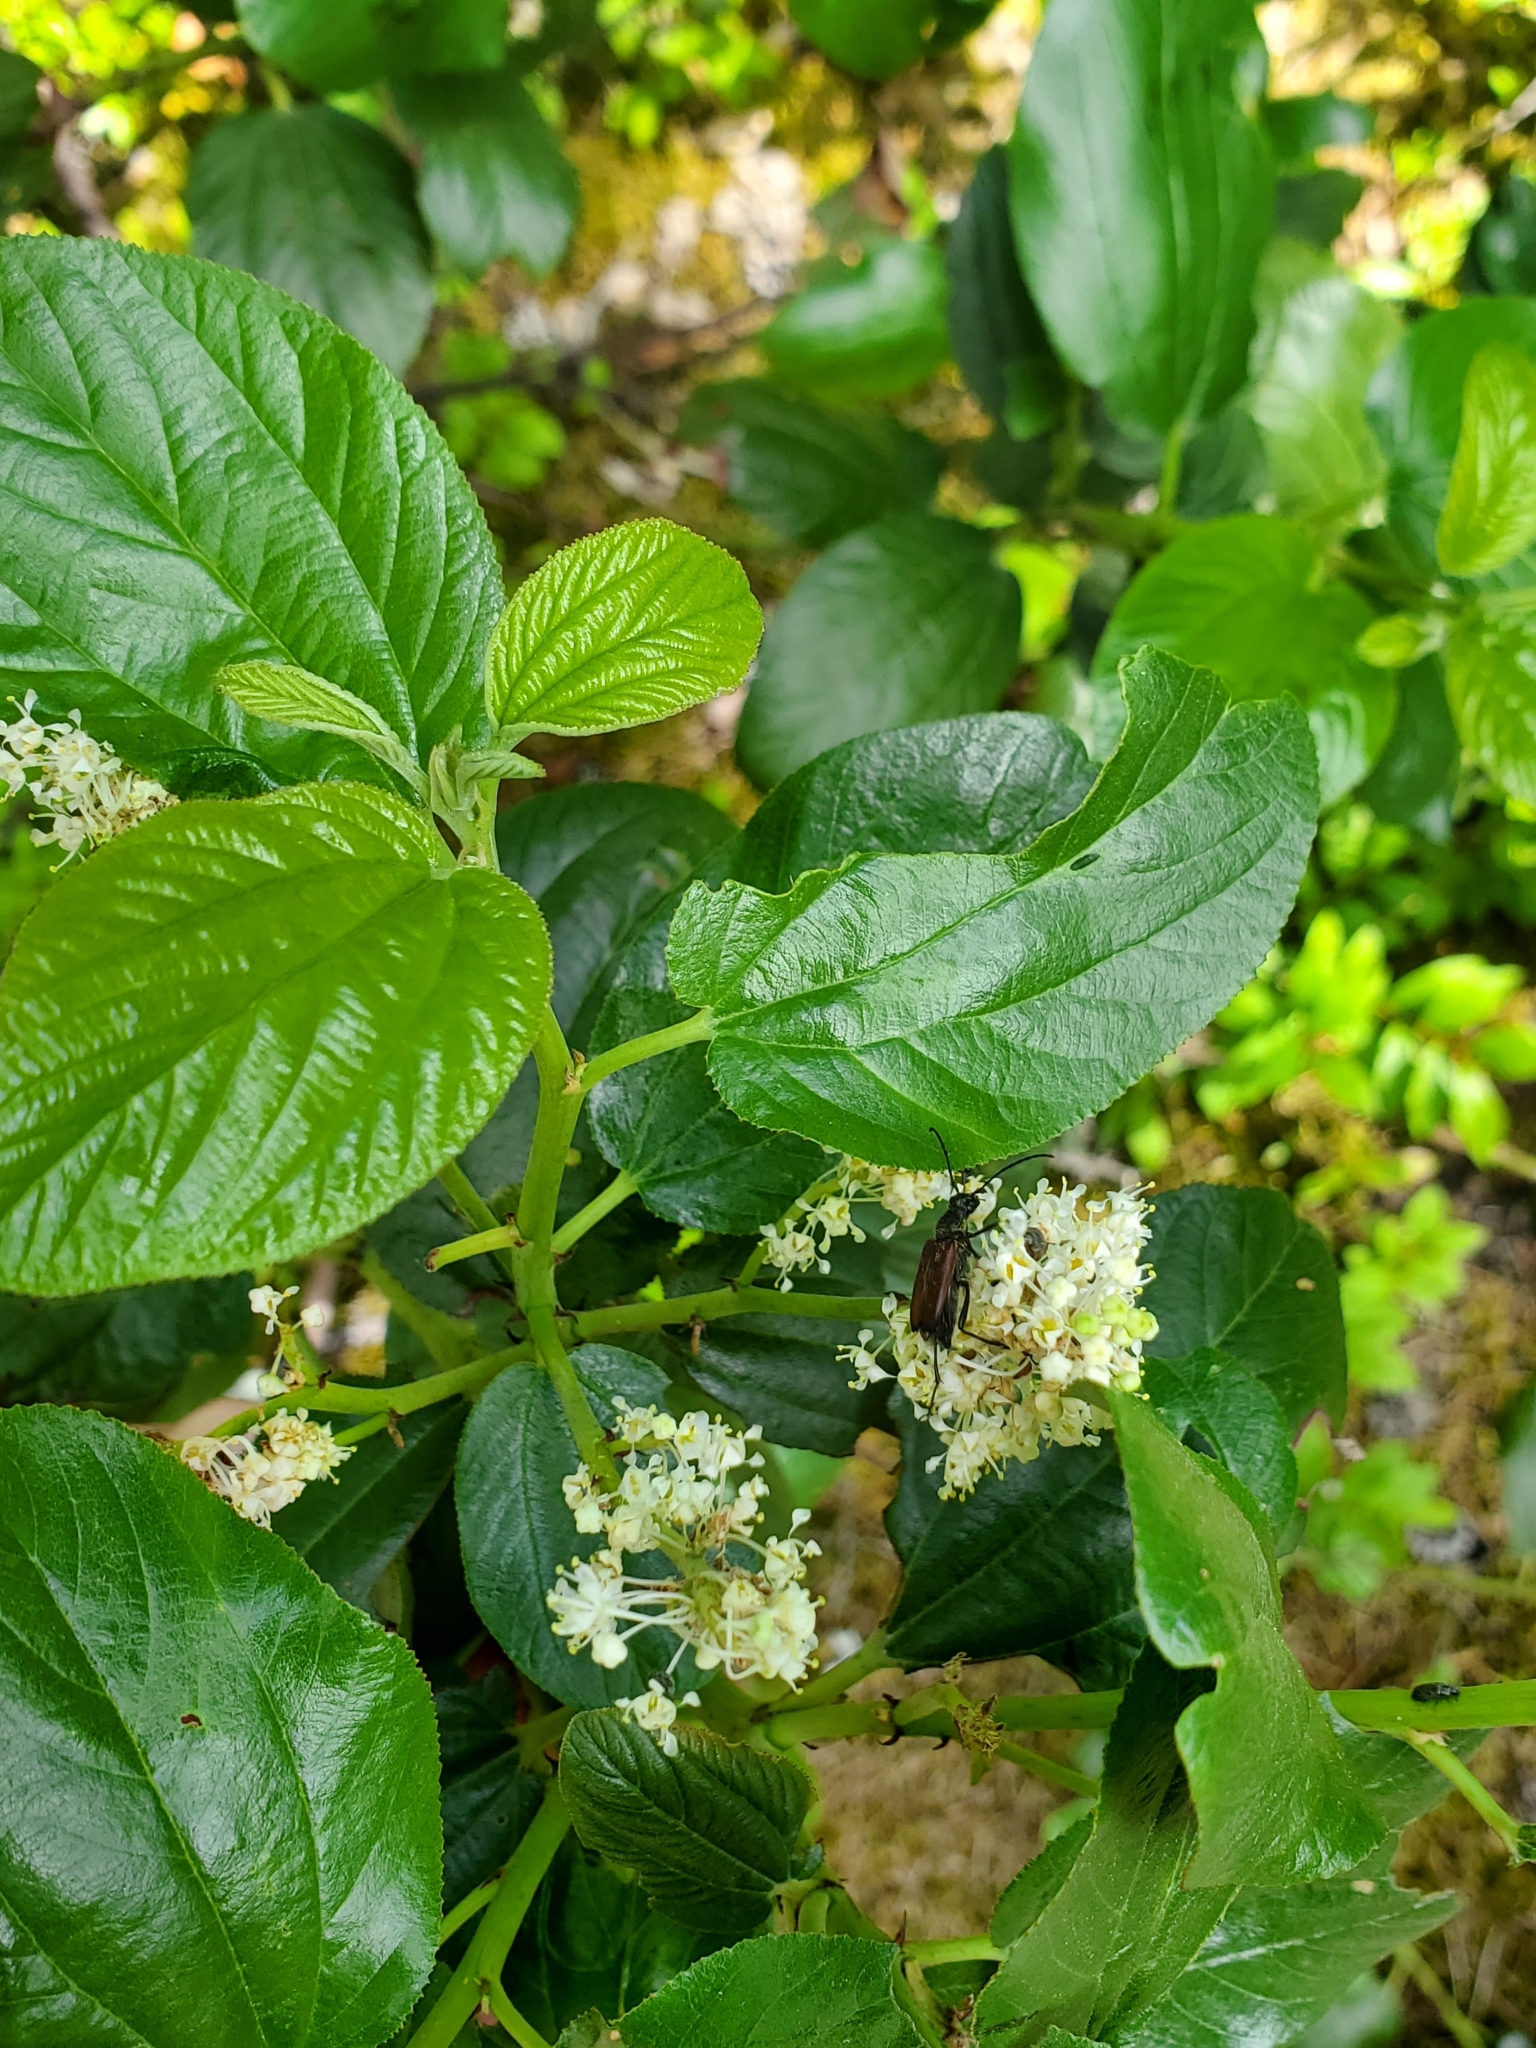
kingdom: Plantae
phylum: Tracheophyta
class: Magnoliopsida
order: Rosales
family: Rhamnaceae
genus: Ceanothus
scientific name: Ceanothus velutinus
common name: Snowbrush
